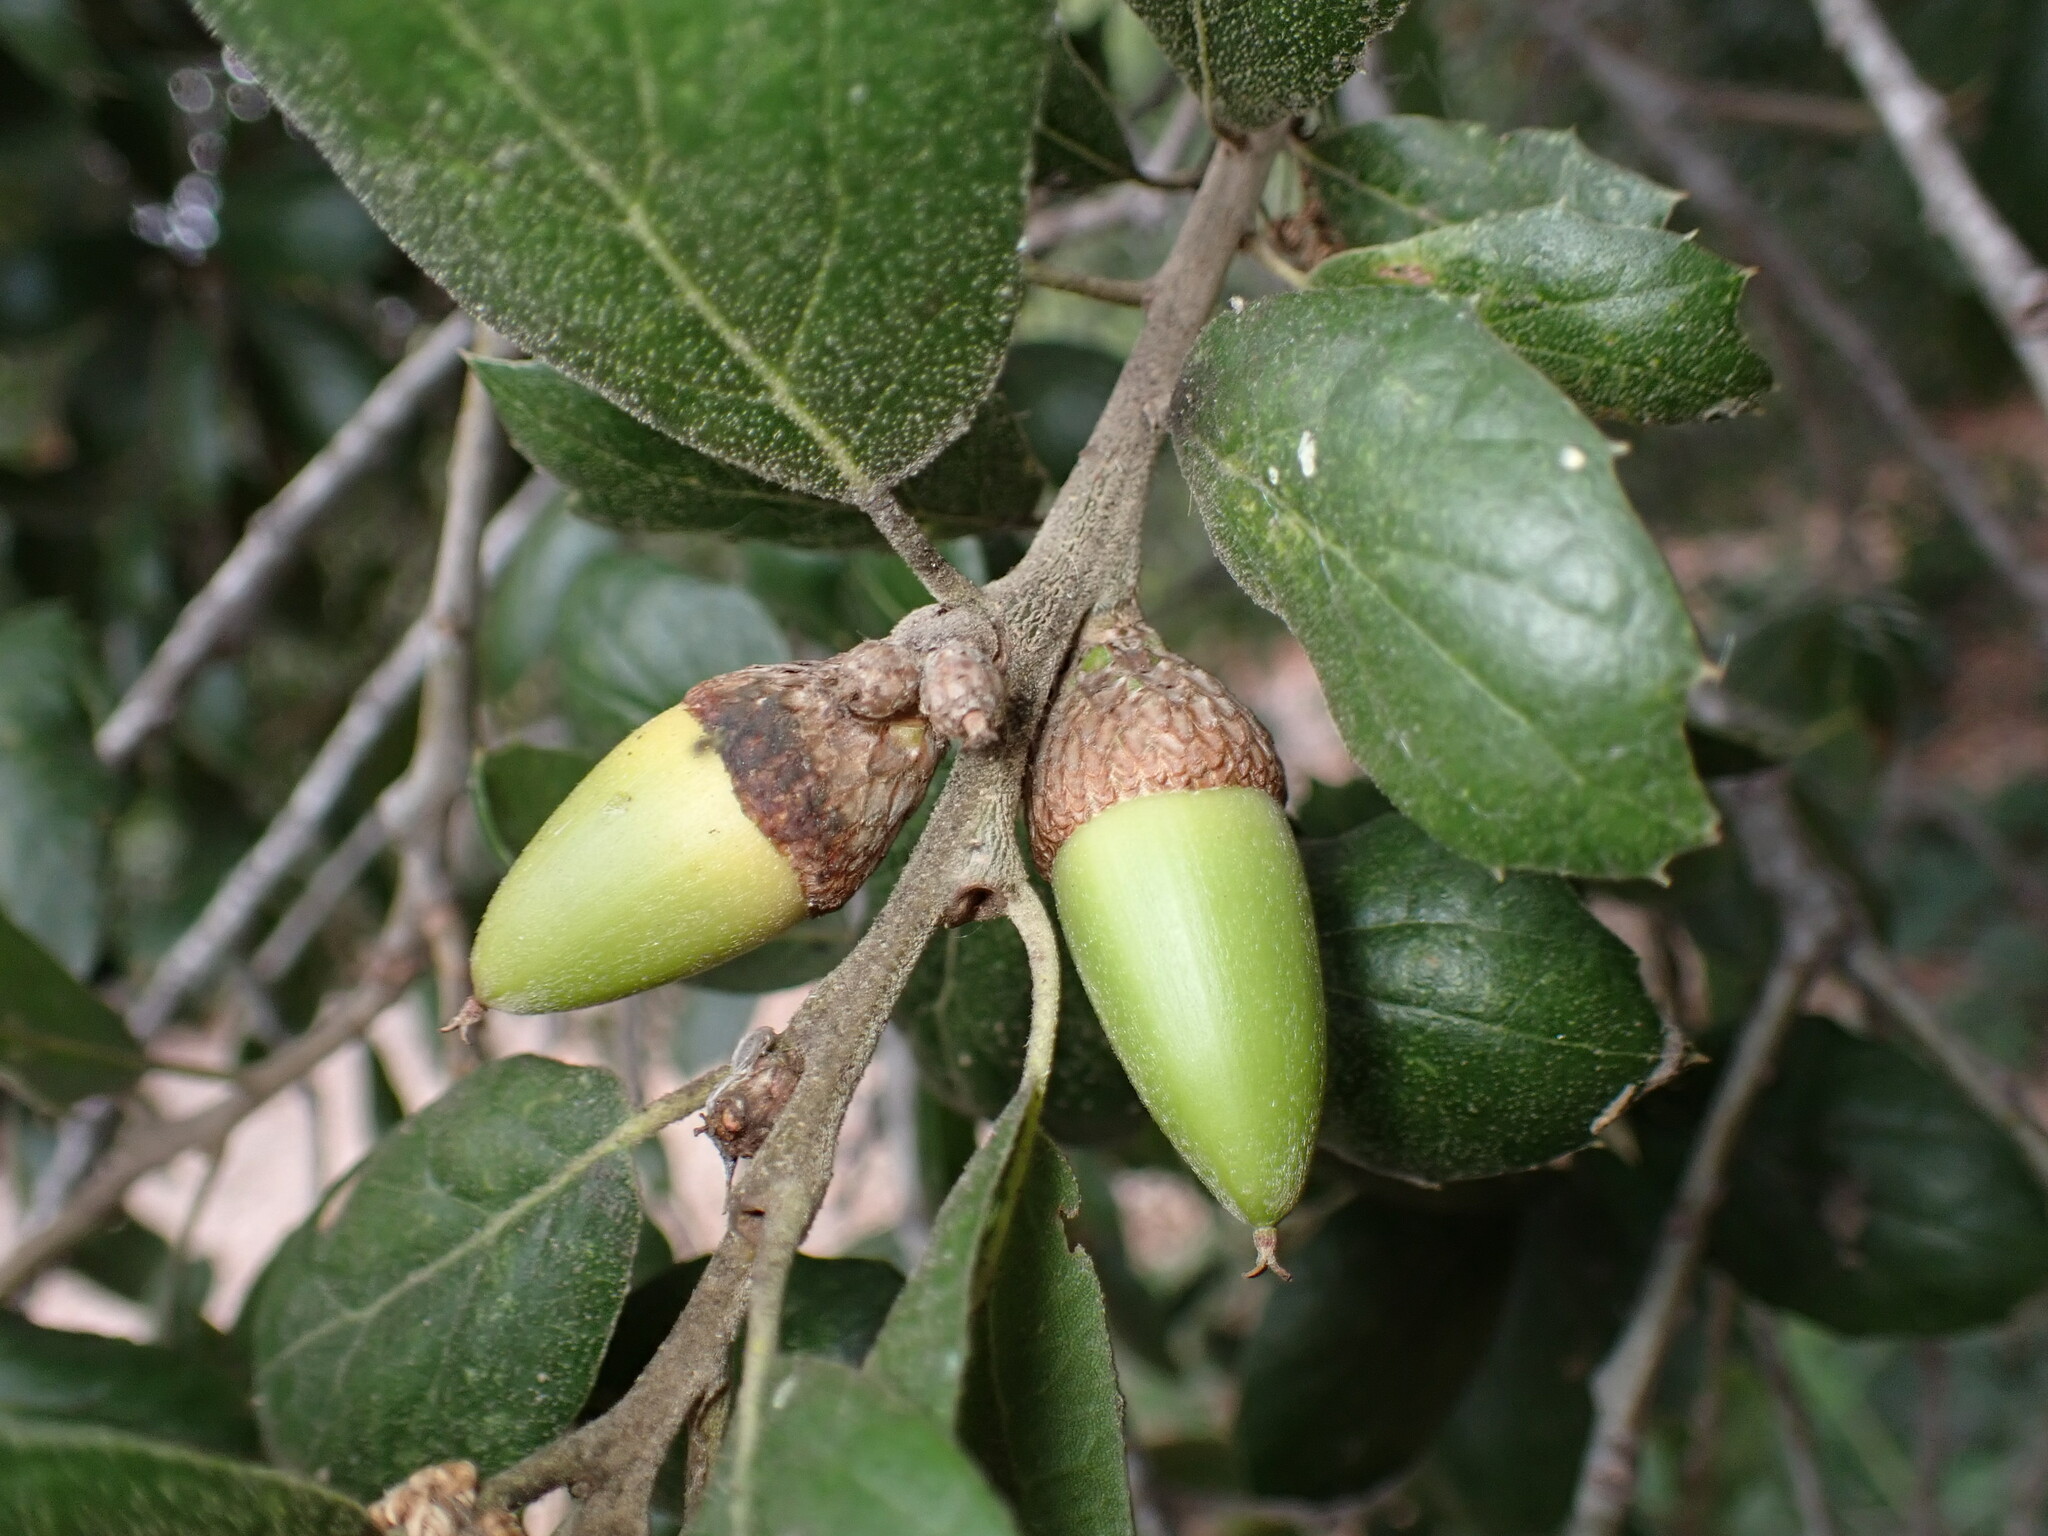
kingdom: Plantae
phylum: Tracheophyta
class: Magnoliopsida
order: Fagales
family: Fagaceae
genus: Quercus
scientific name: Quercus agrifolia
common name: California live oak
